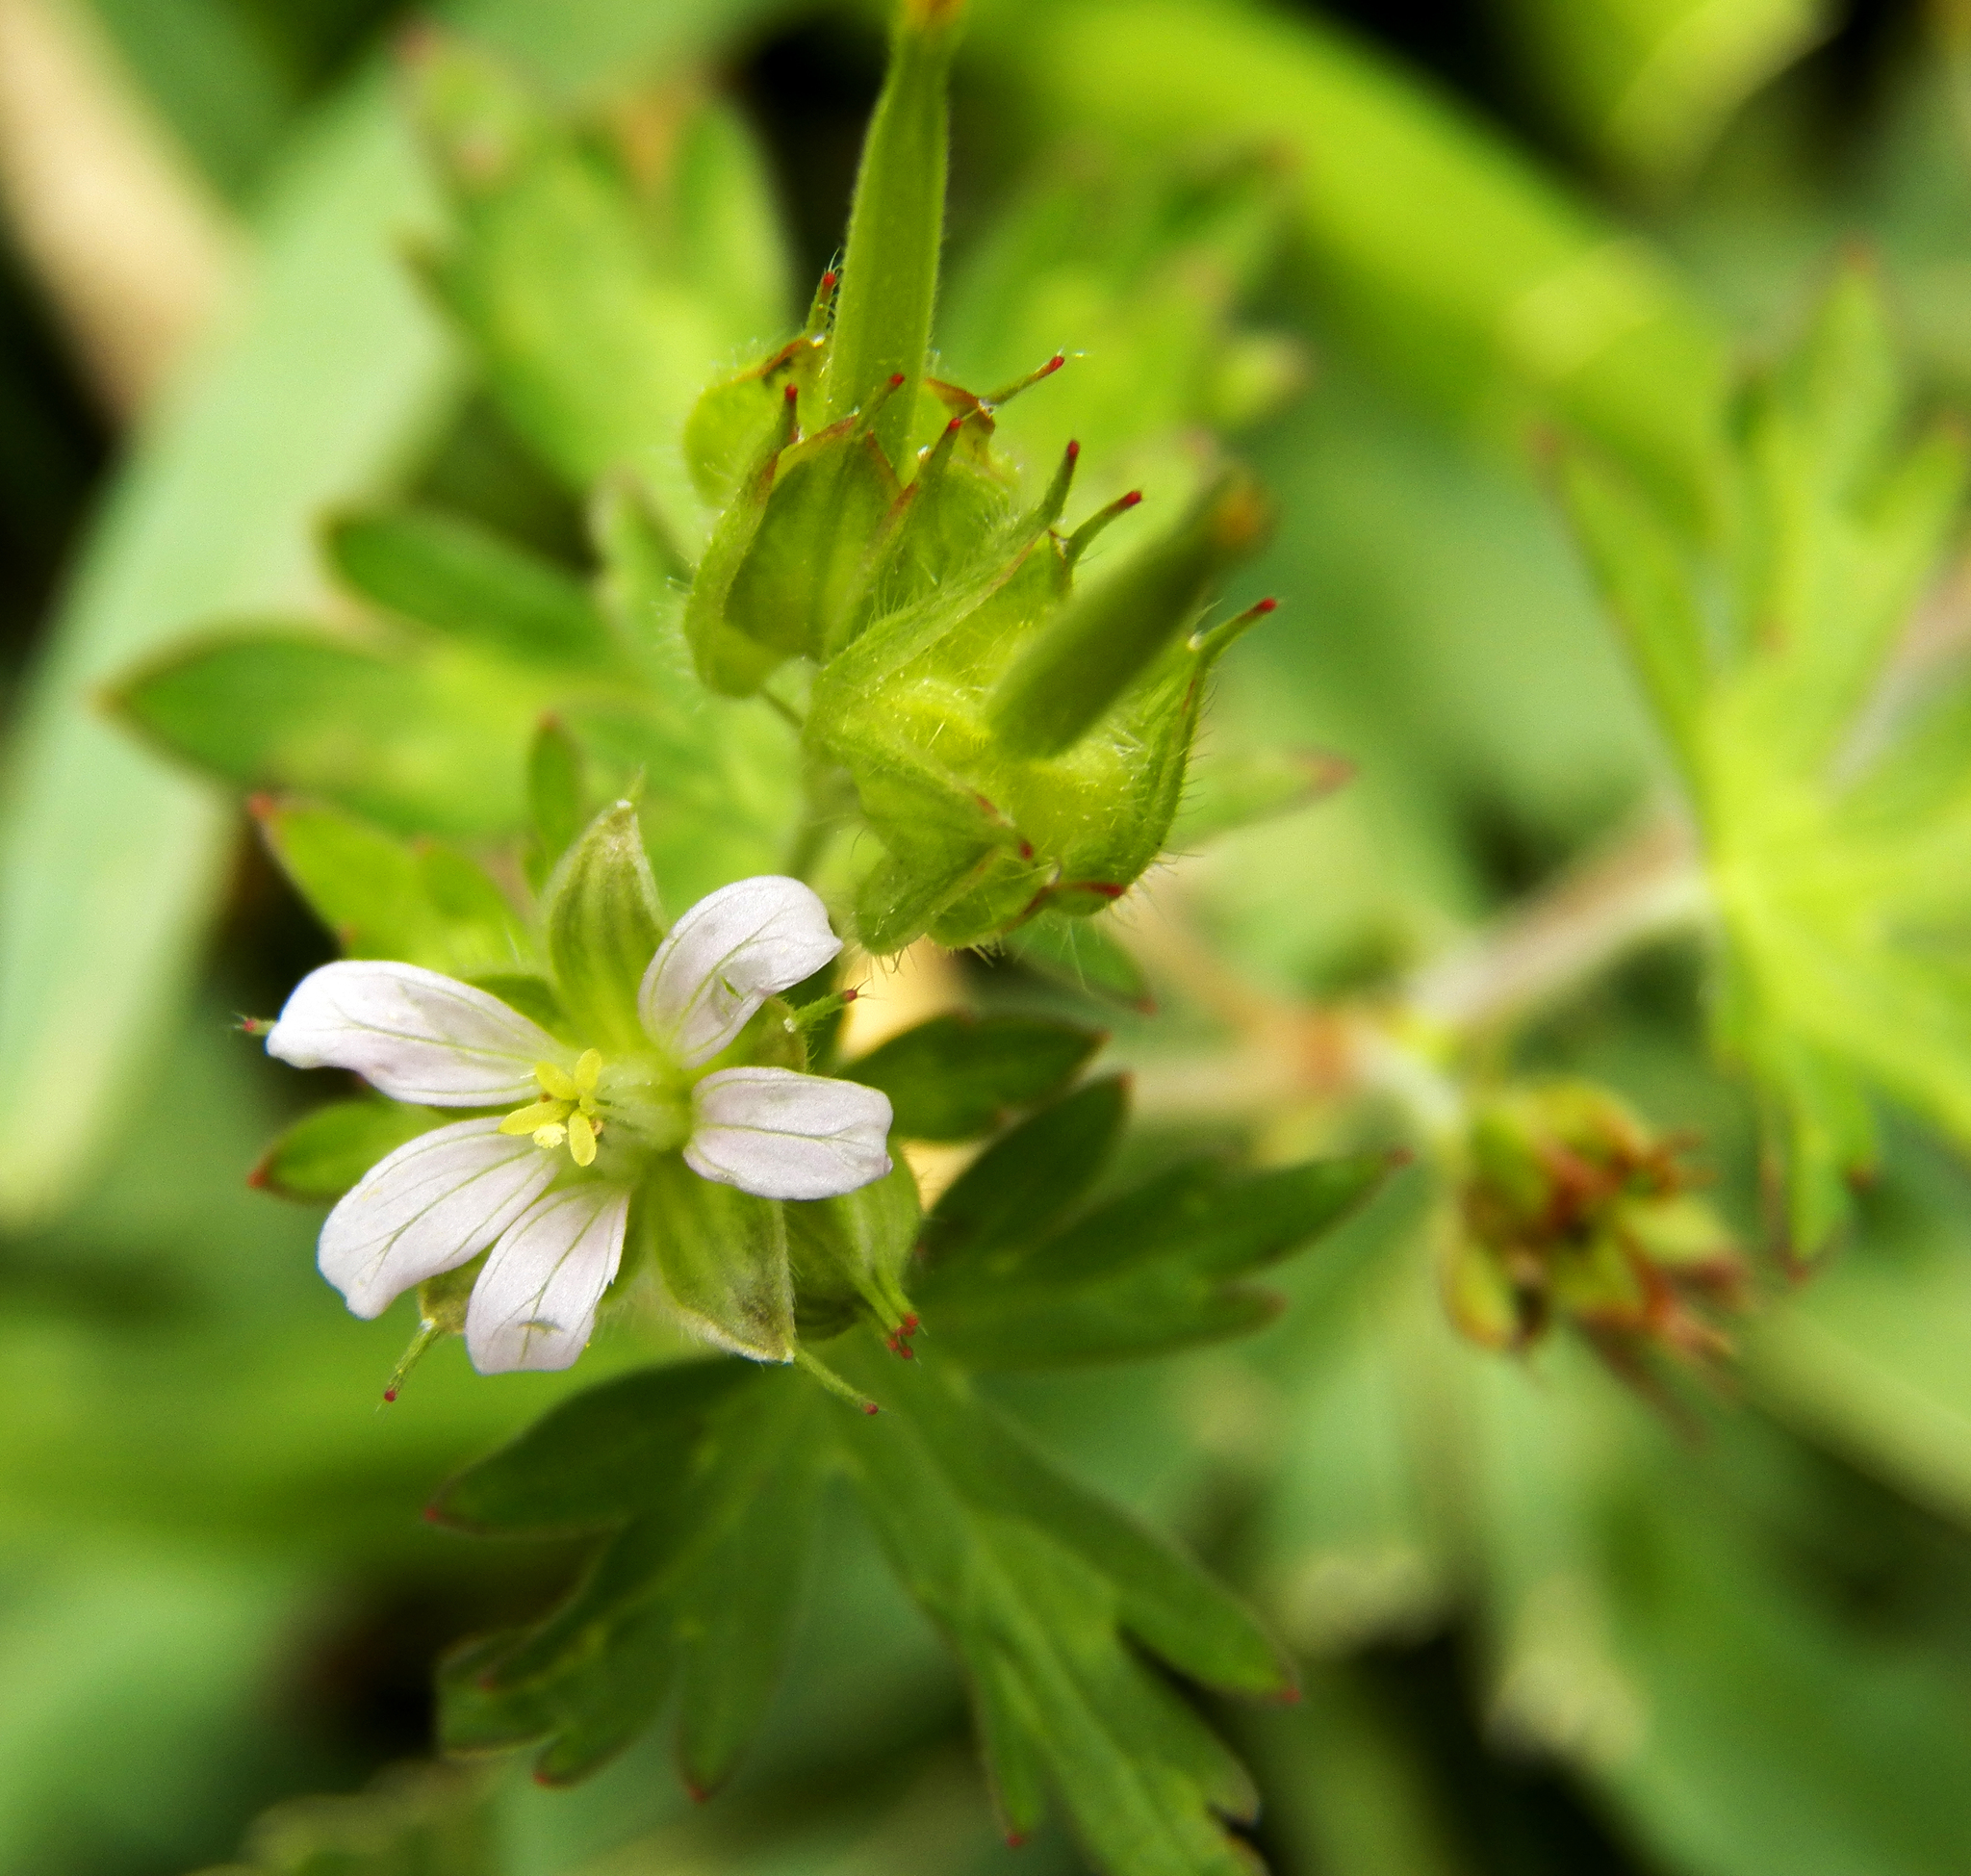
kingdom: Plantae
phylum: Tracheophyta
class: Magnoliopsida
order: Geraniales
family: Geraniaceae
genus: Geranium
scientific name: Geranium carolinianum
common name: Carolina crane's-bill
